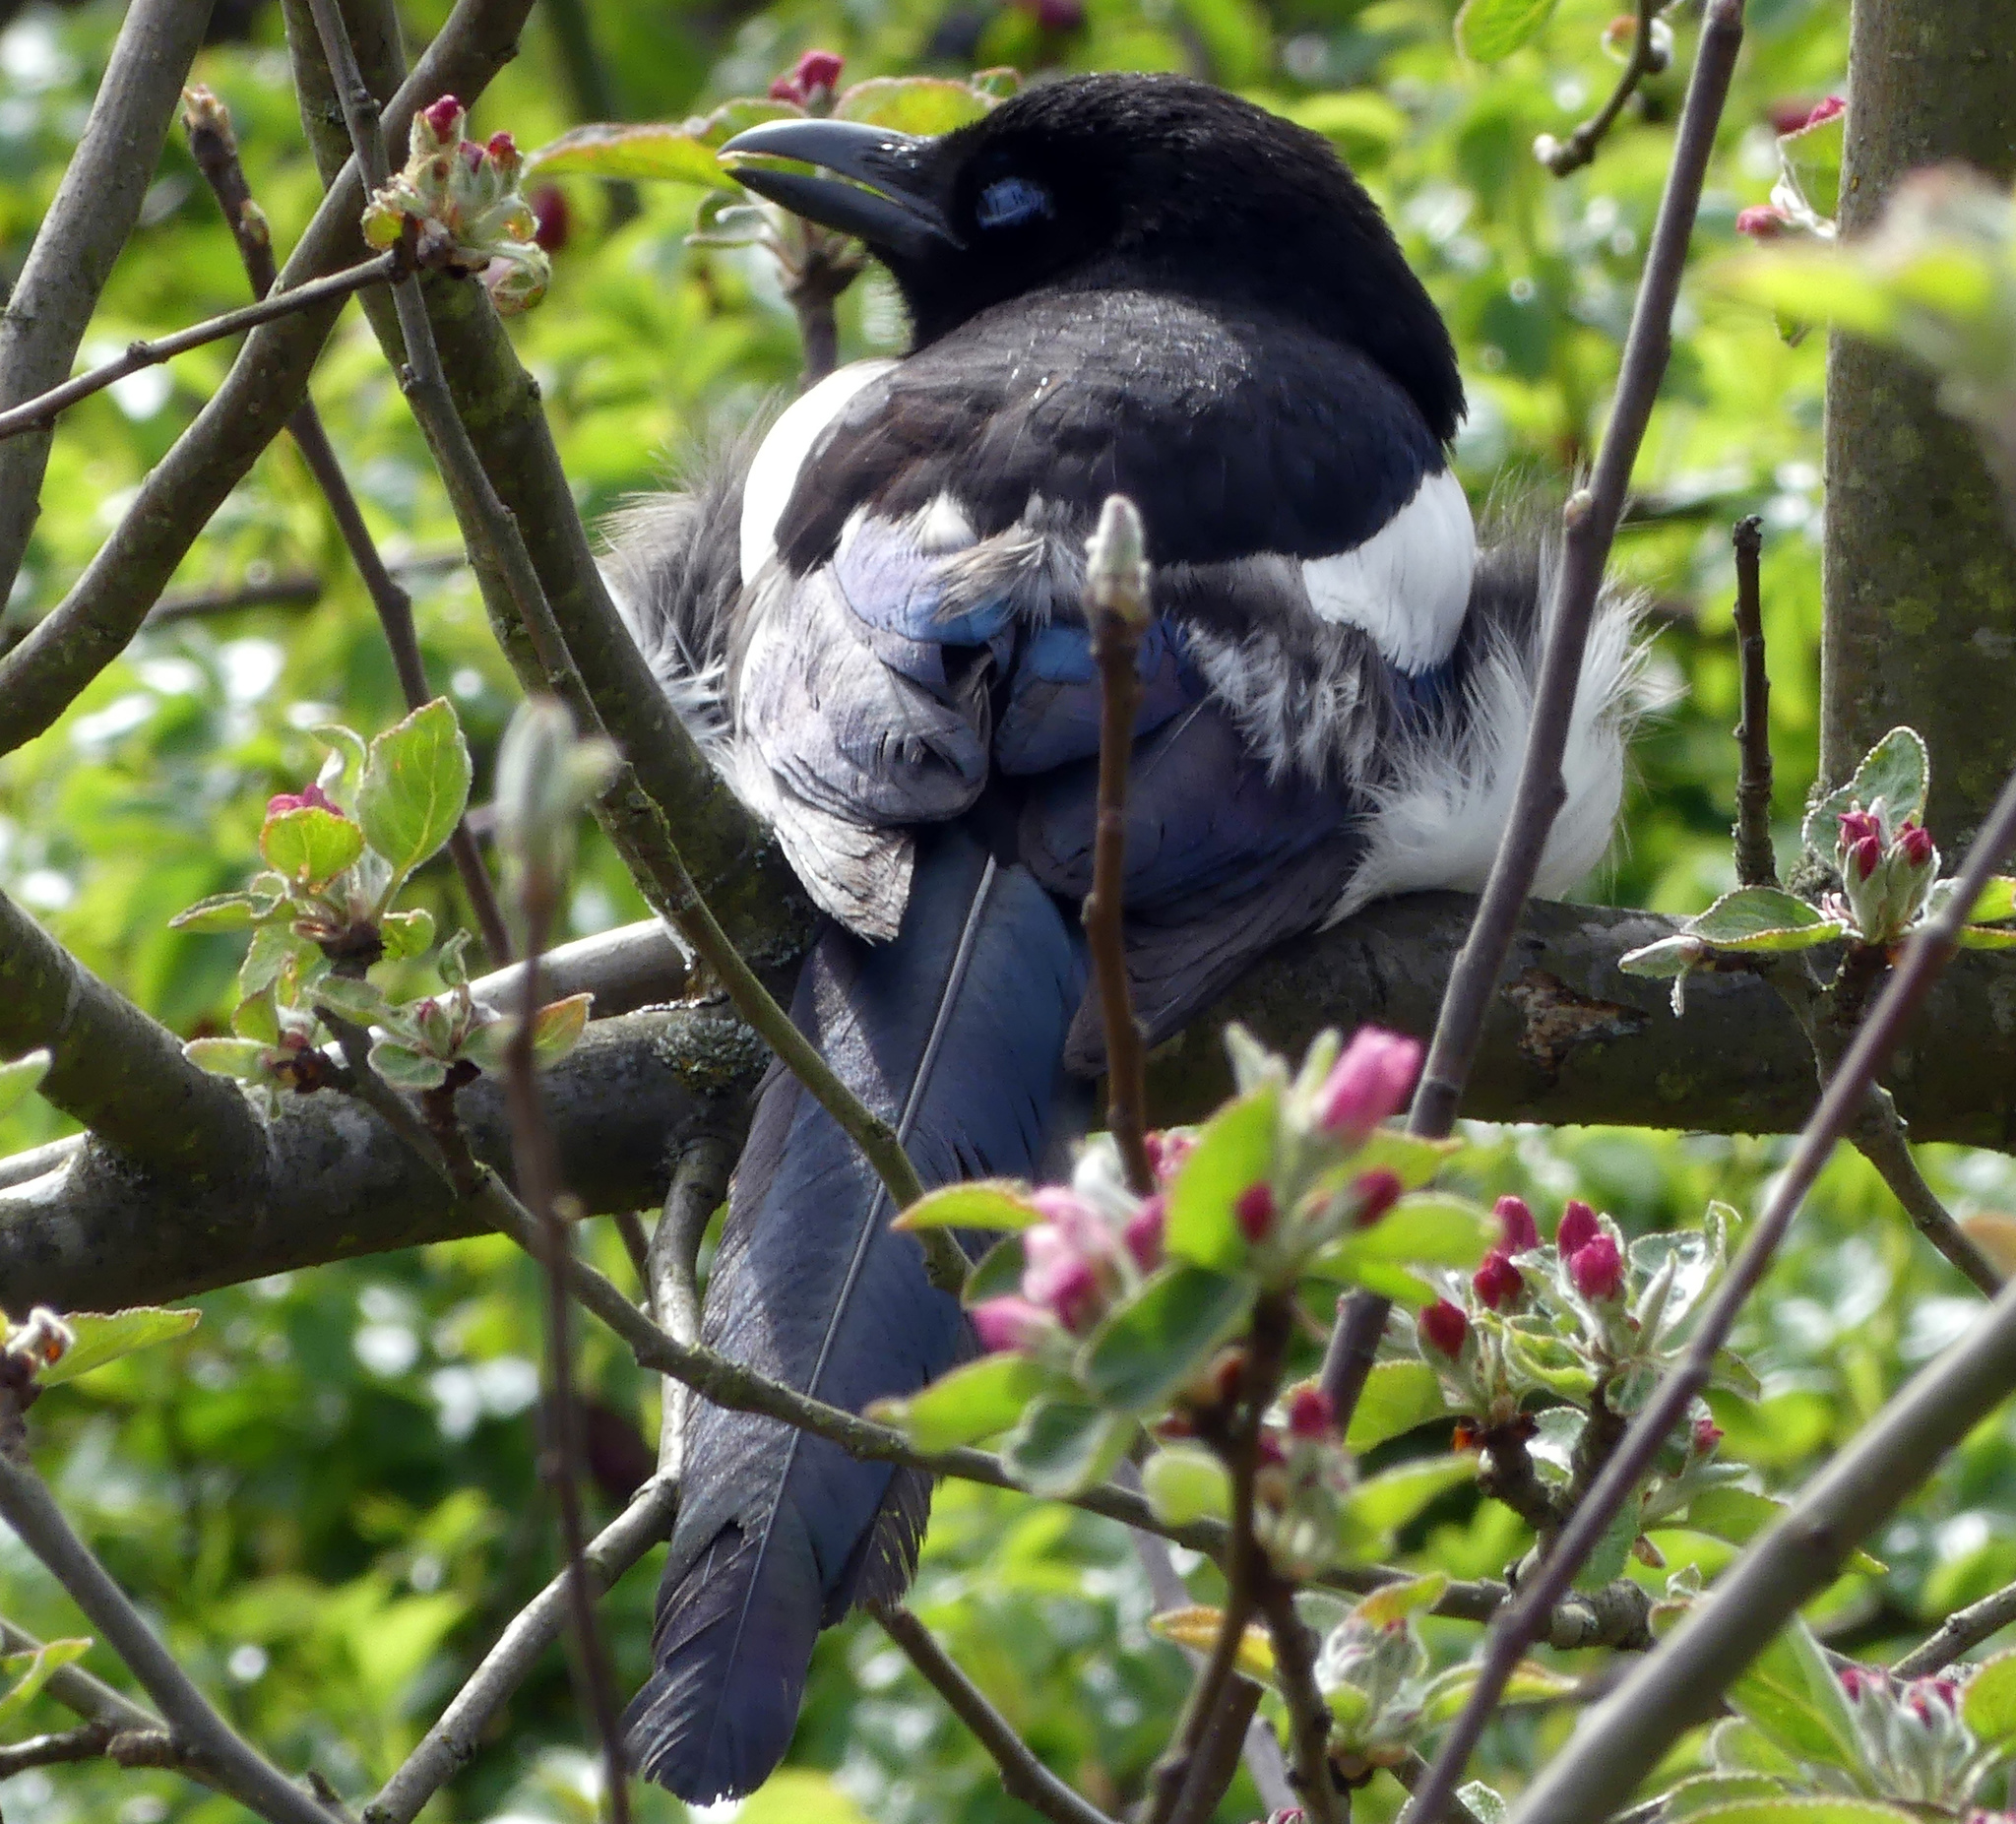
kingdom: Animalia
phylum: Chordata
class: Aves
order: Passeriformes
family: Corvidae
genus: Pica
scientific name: Pica pica
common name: Eurasian magpie
